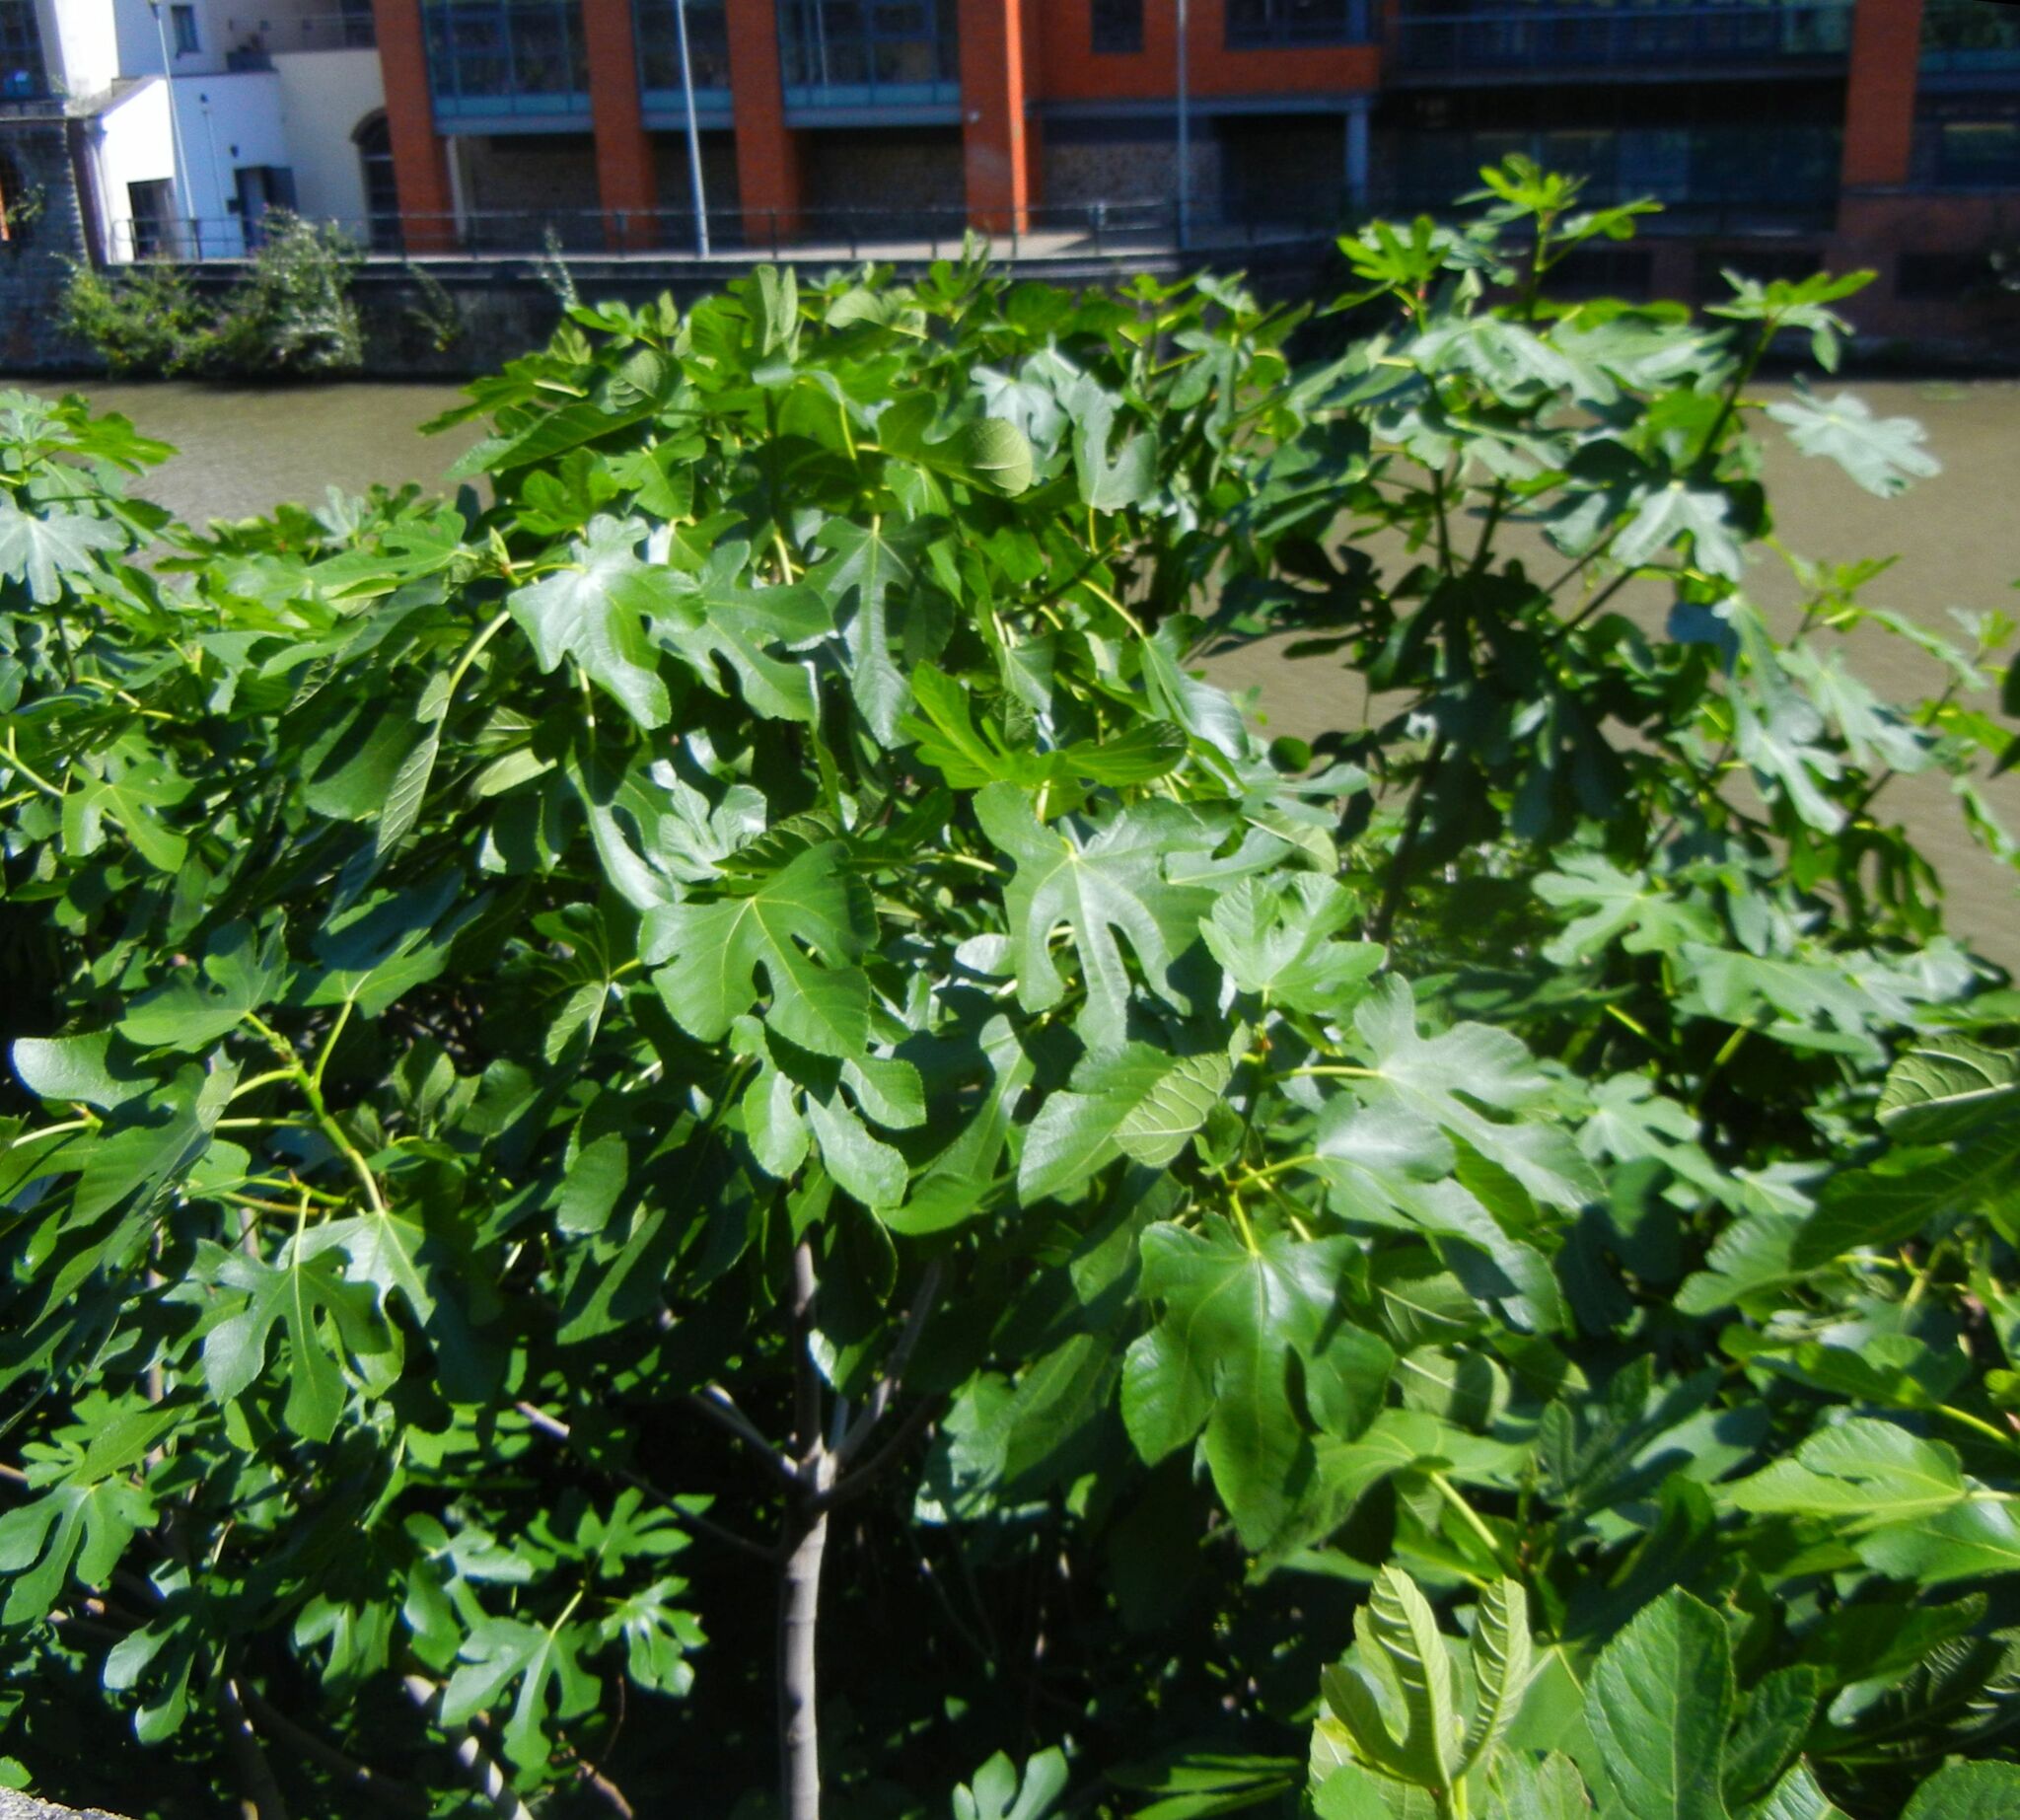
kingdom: Plantae
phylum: Tracheophyta
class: Magnoliopsida
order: Rosales
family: Moraceae
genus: Ficus
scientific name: Ficus carica
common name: Fig
